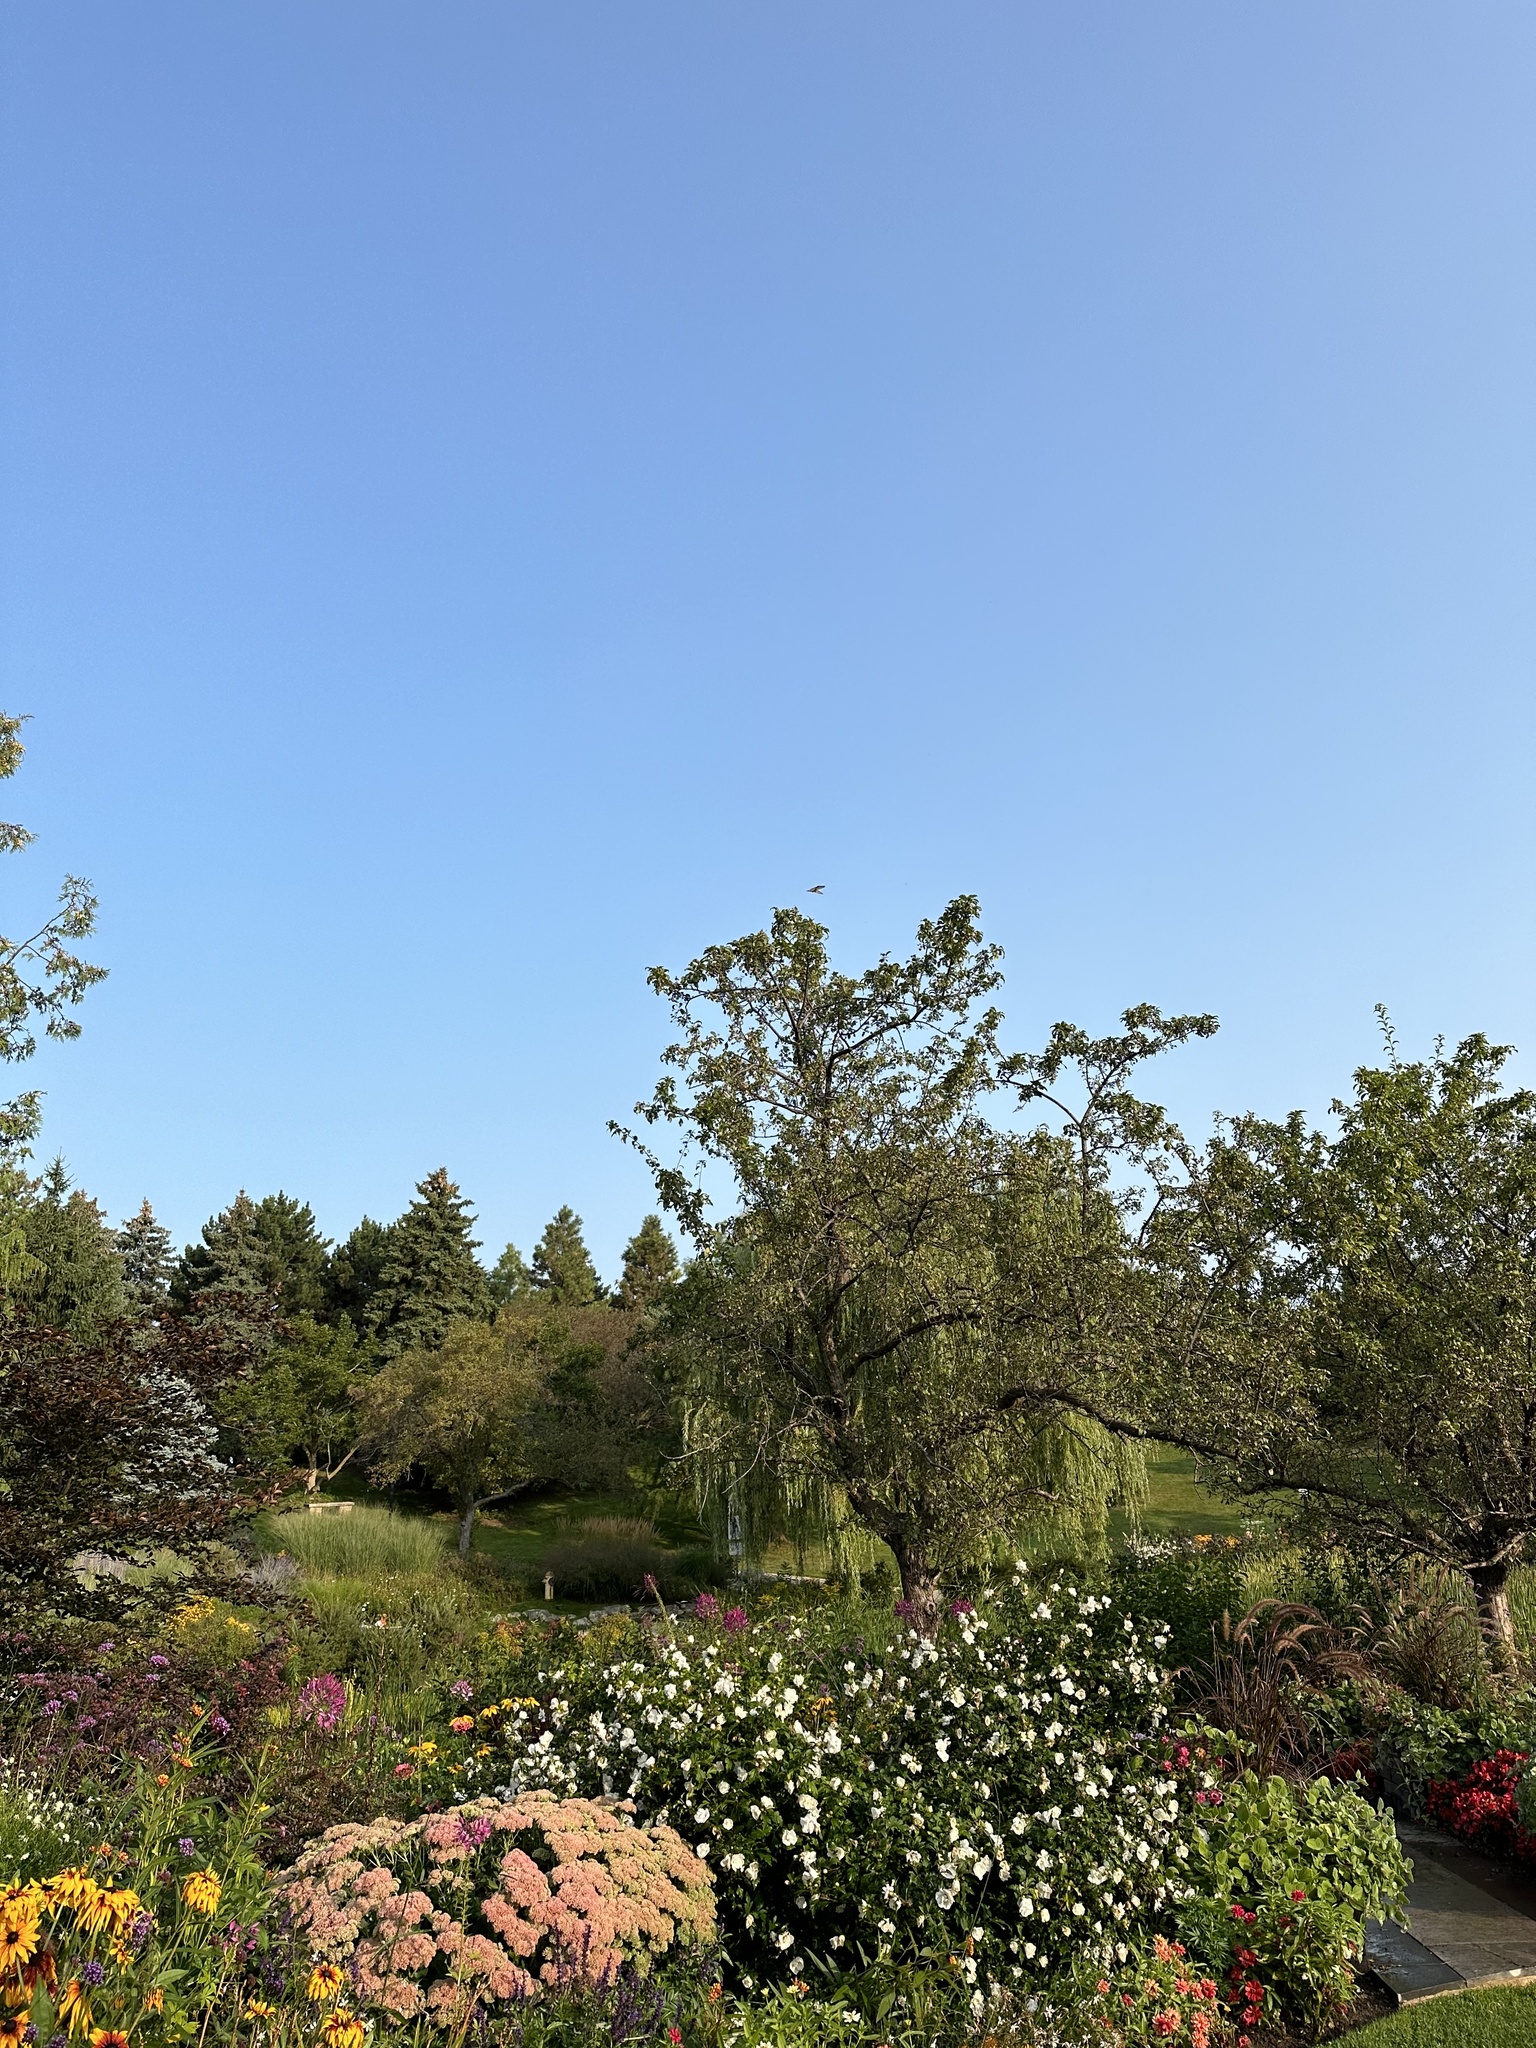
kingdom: Animalia
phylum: Chordata
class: Aves
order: Apodiformes
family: Trochilidae
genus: Archilochus
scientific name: Archilochus colubris
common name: Ruby-throated hummingbird
